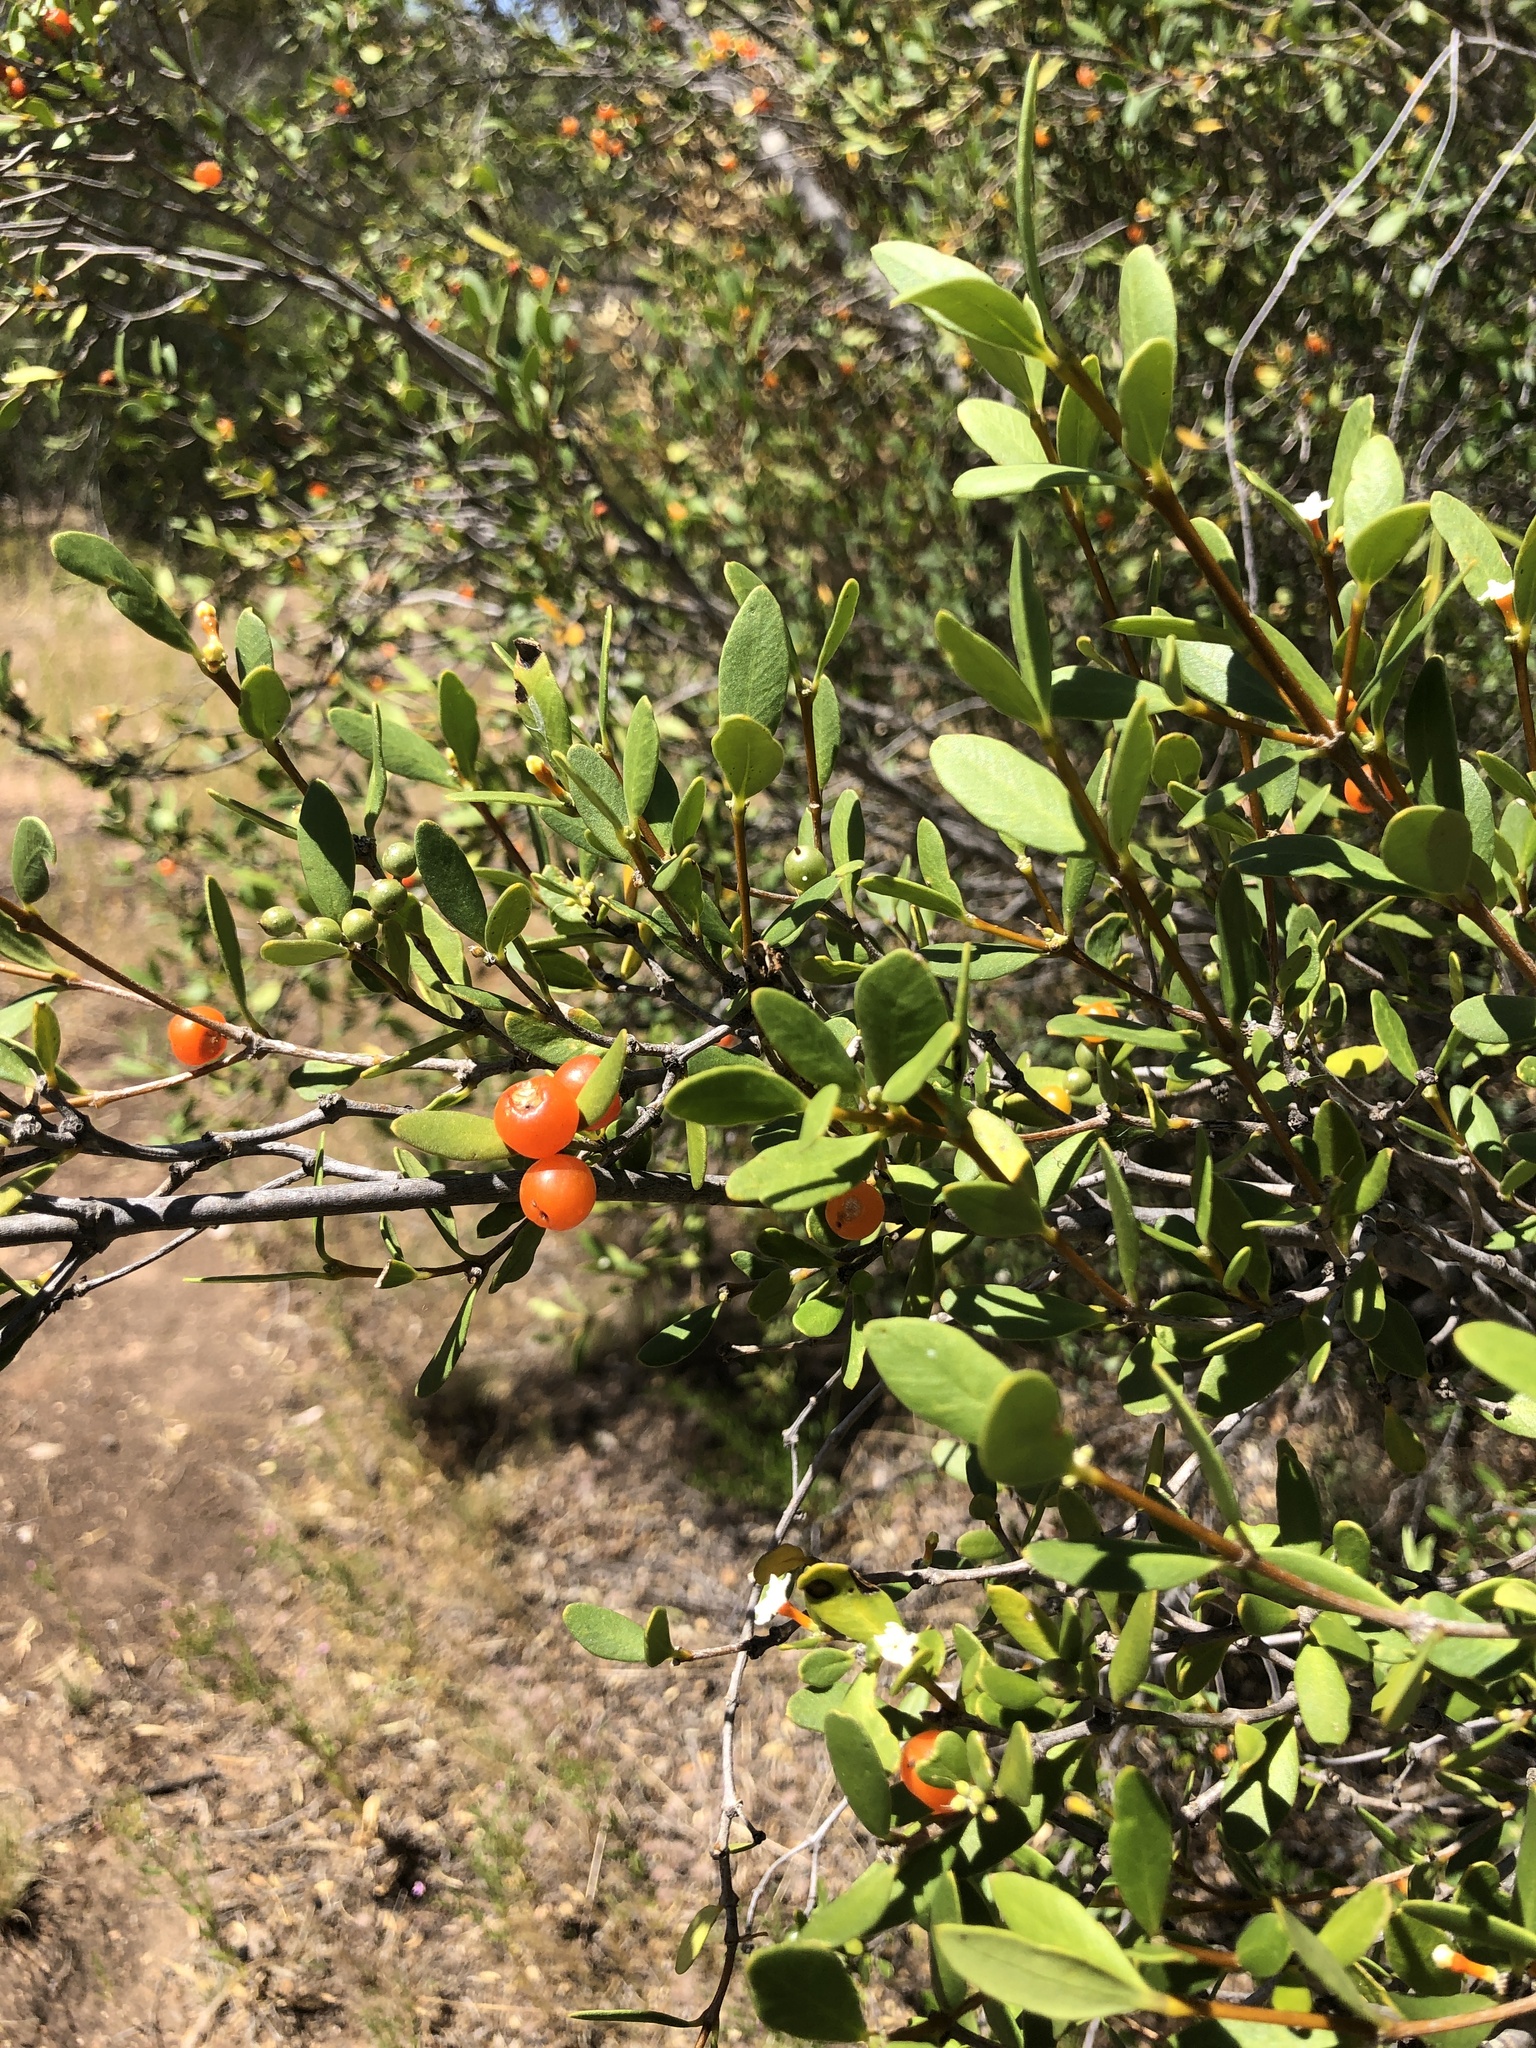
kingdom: Plantae
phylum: Tracheophyta
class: Magnoliopsida
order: Gentianales
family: Apocynaceae
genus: Alyxia
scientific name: Alyxia buxifolia
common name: Dysentery-bush
